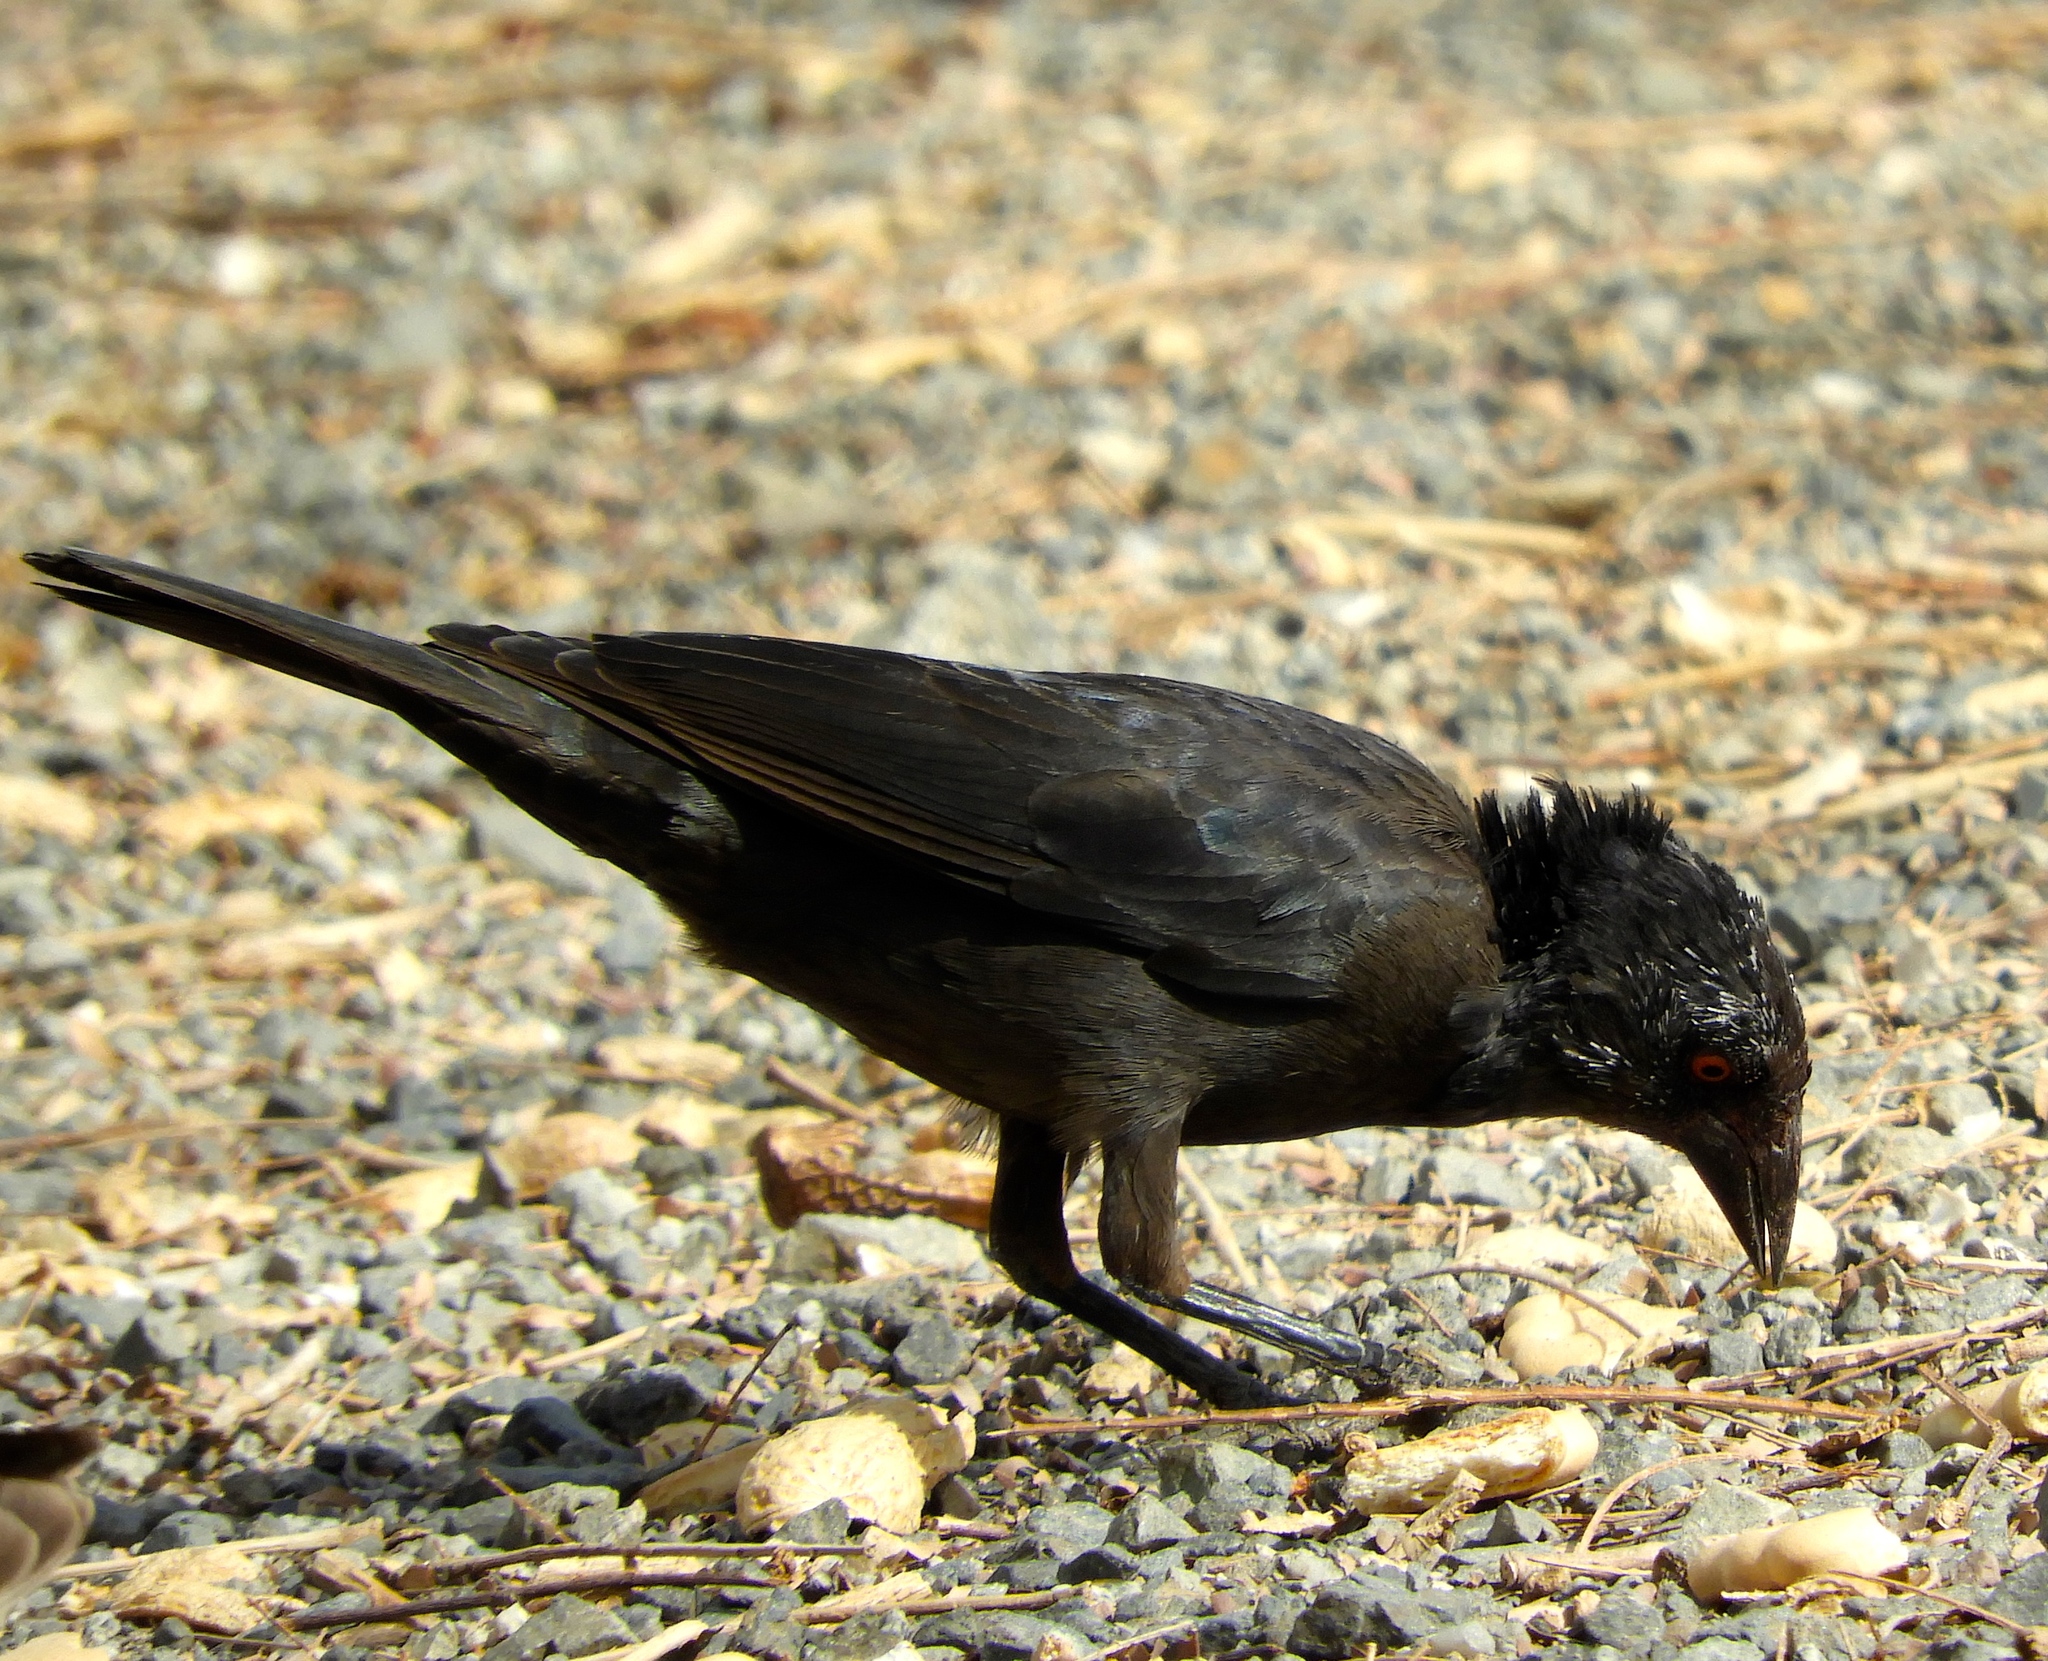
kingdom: Animalia
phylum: Chordata
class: Aves
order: Passeriformes
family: Icteridae
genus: Molothrus
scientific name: Molothrus aeneus
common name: Bronzed cowbird
